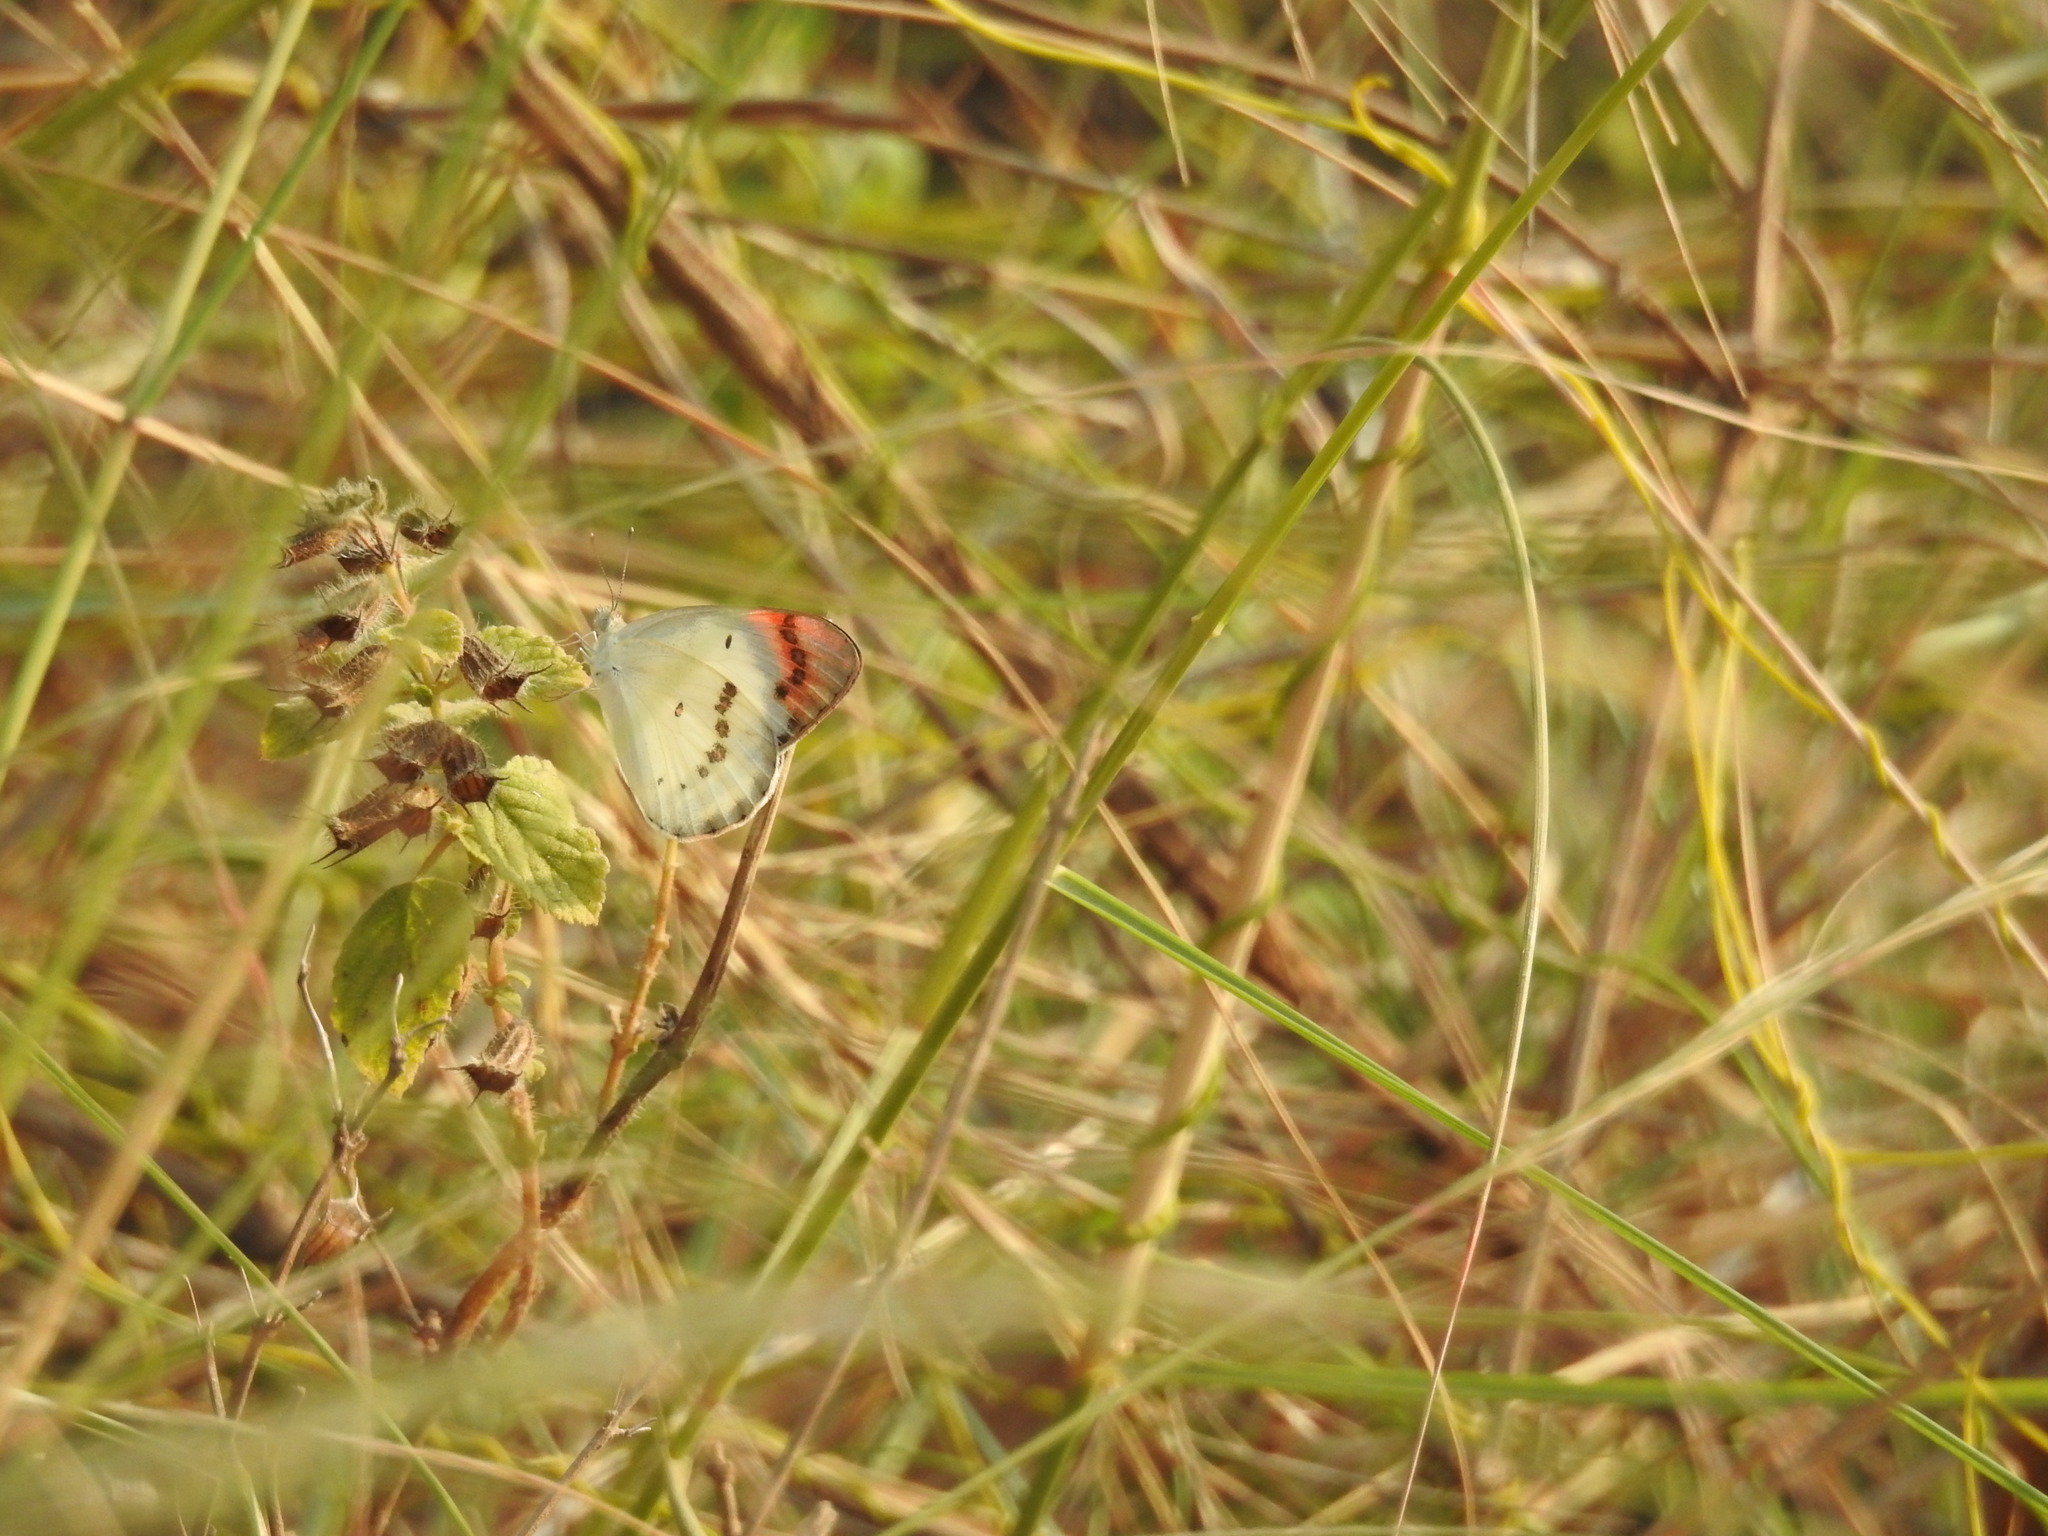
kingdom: Animalia
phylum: Arthropoda
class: Insecta
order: Lepidoptera
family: Pieridae
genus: Colotis
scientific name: Colotis danae
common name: Crimson tip
